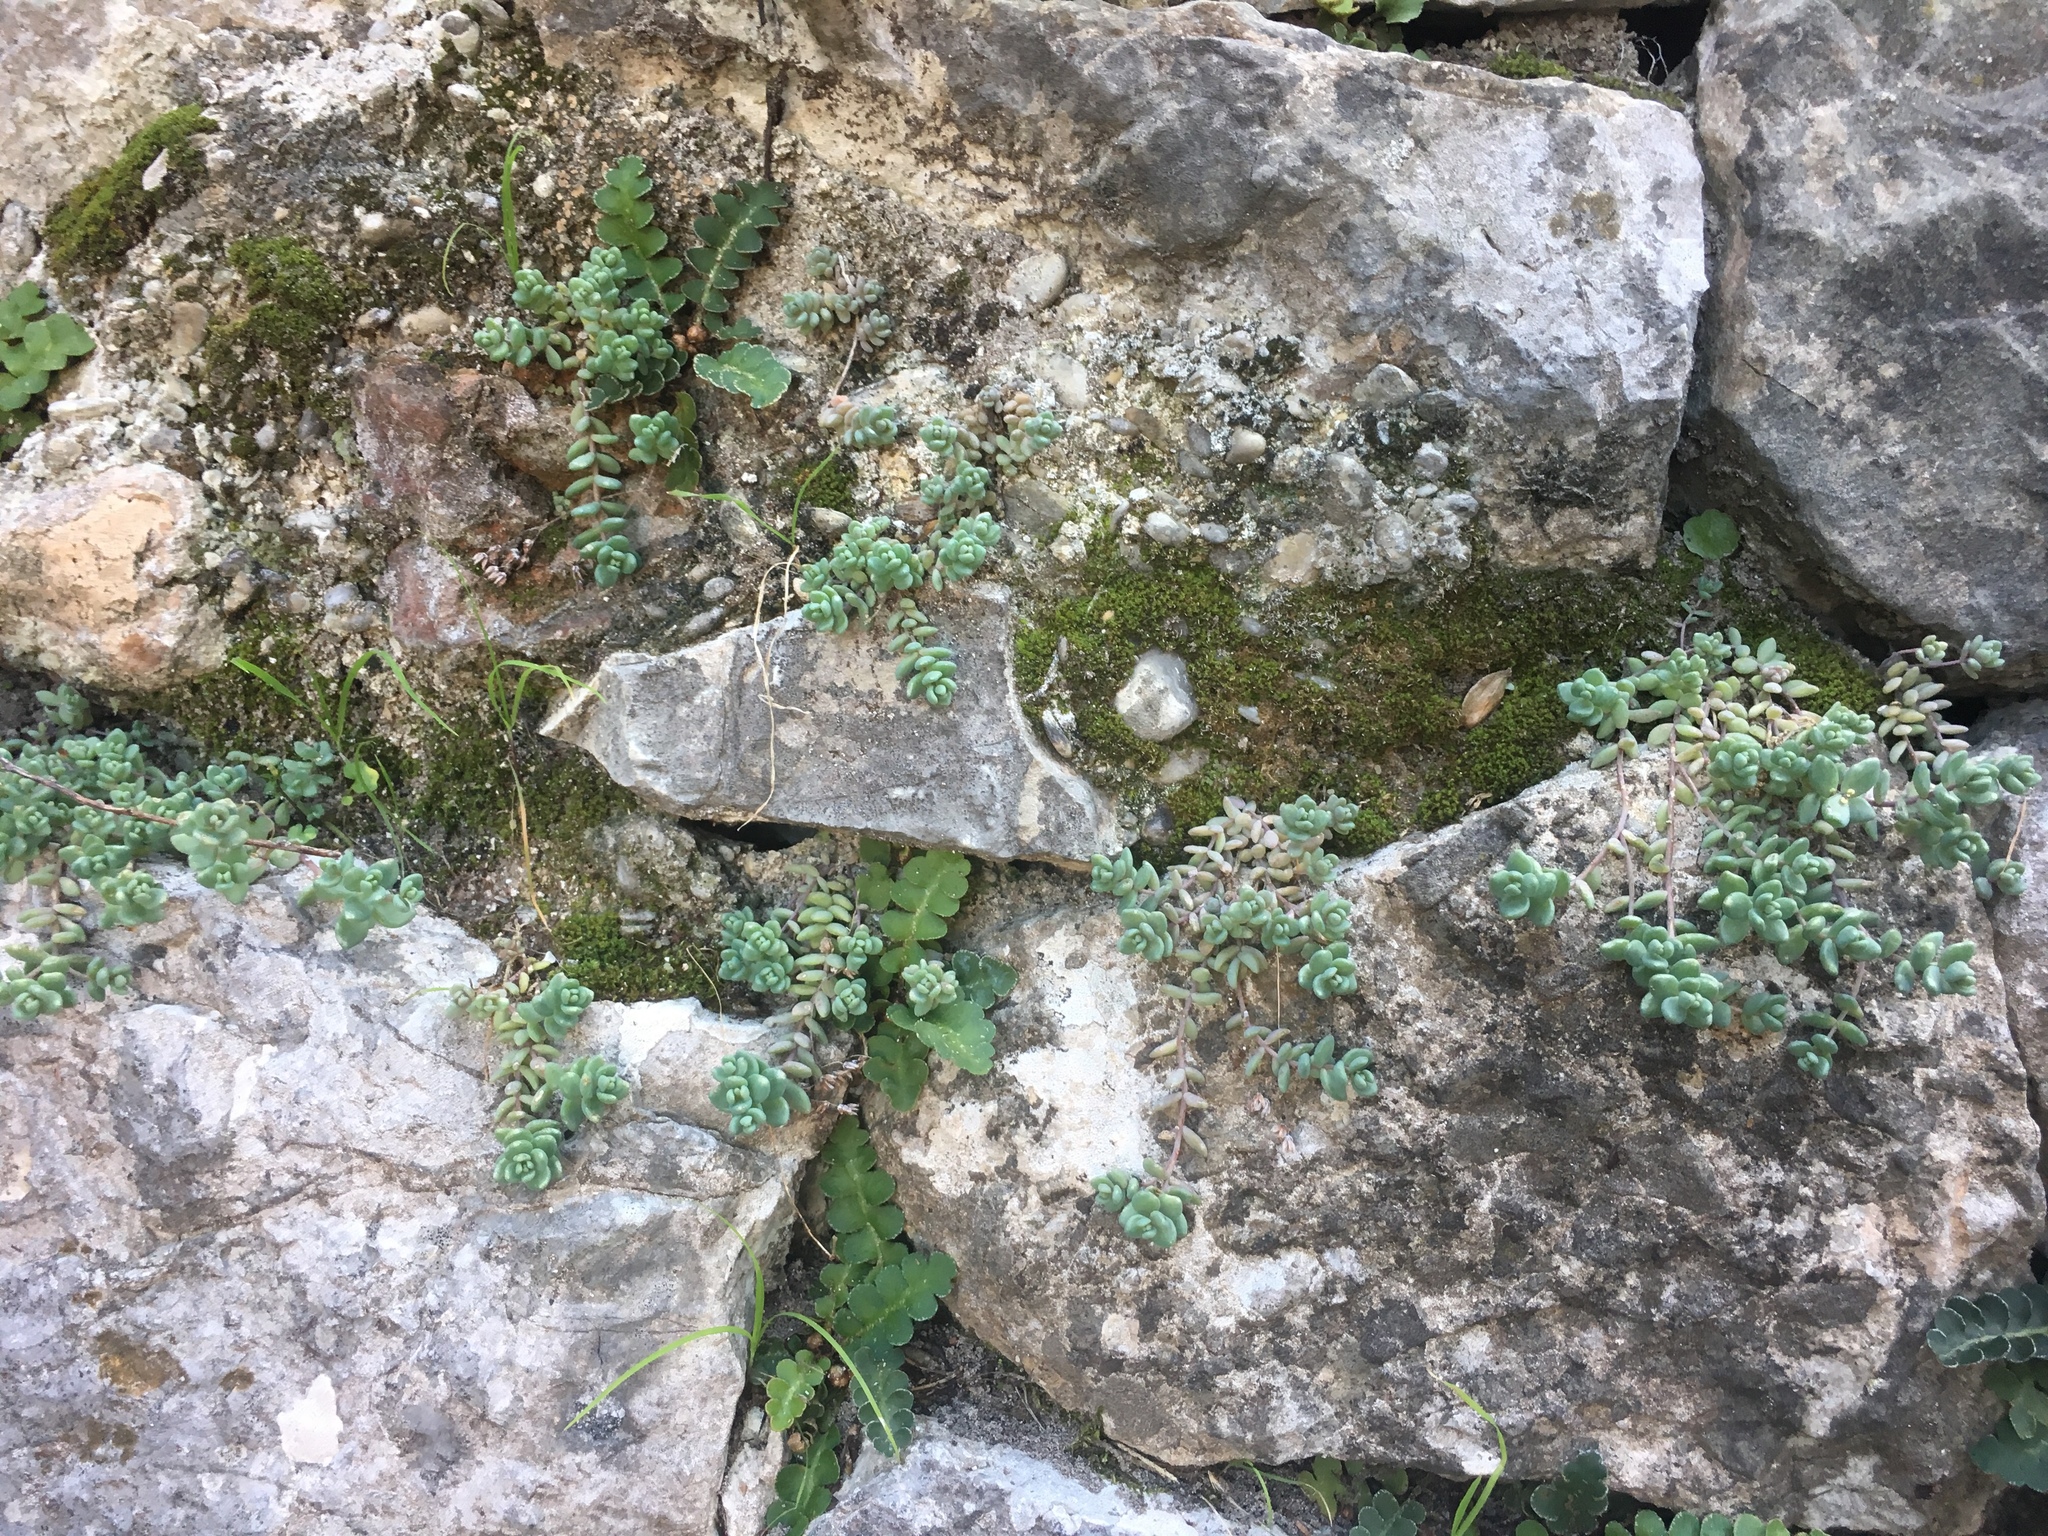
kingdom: Plantae
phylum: Tracheophyta
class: Magnoliopsida
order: Saxifragales
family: Crassulaceae
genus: Sedum
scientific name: Sedum dasyphyllum
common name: Thick-leaf stonecrop
